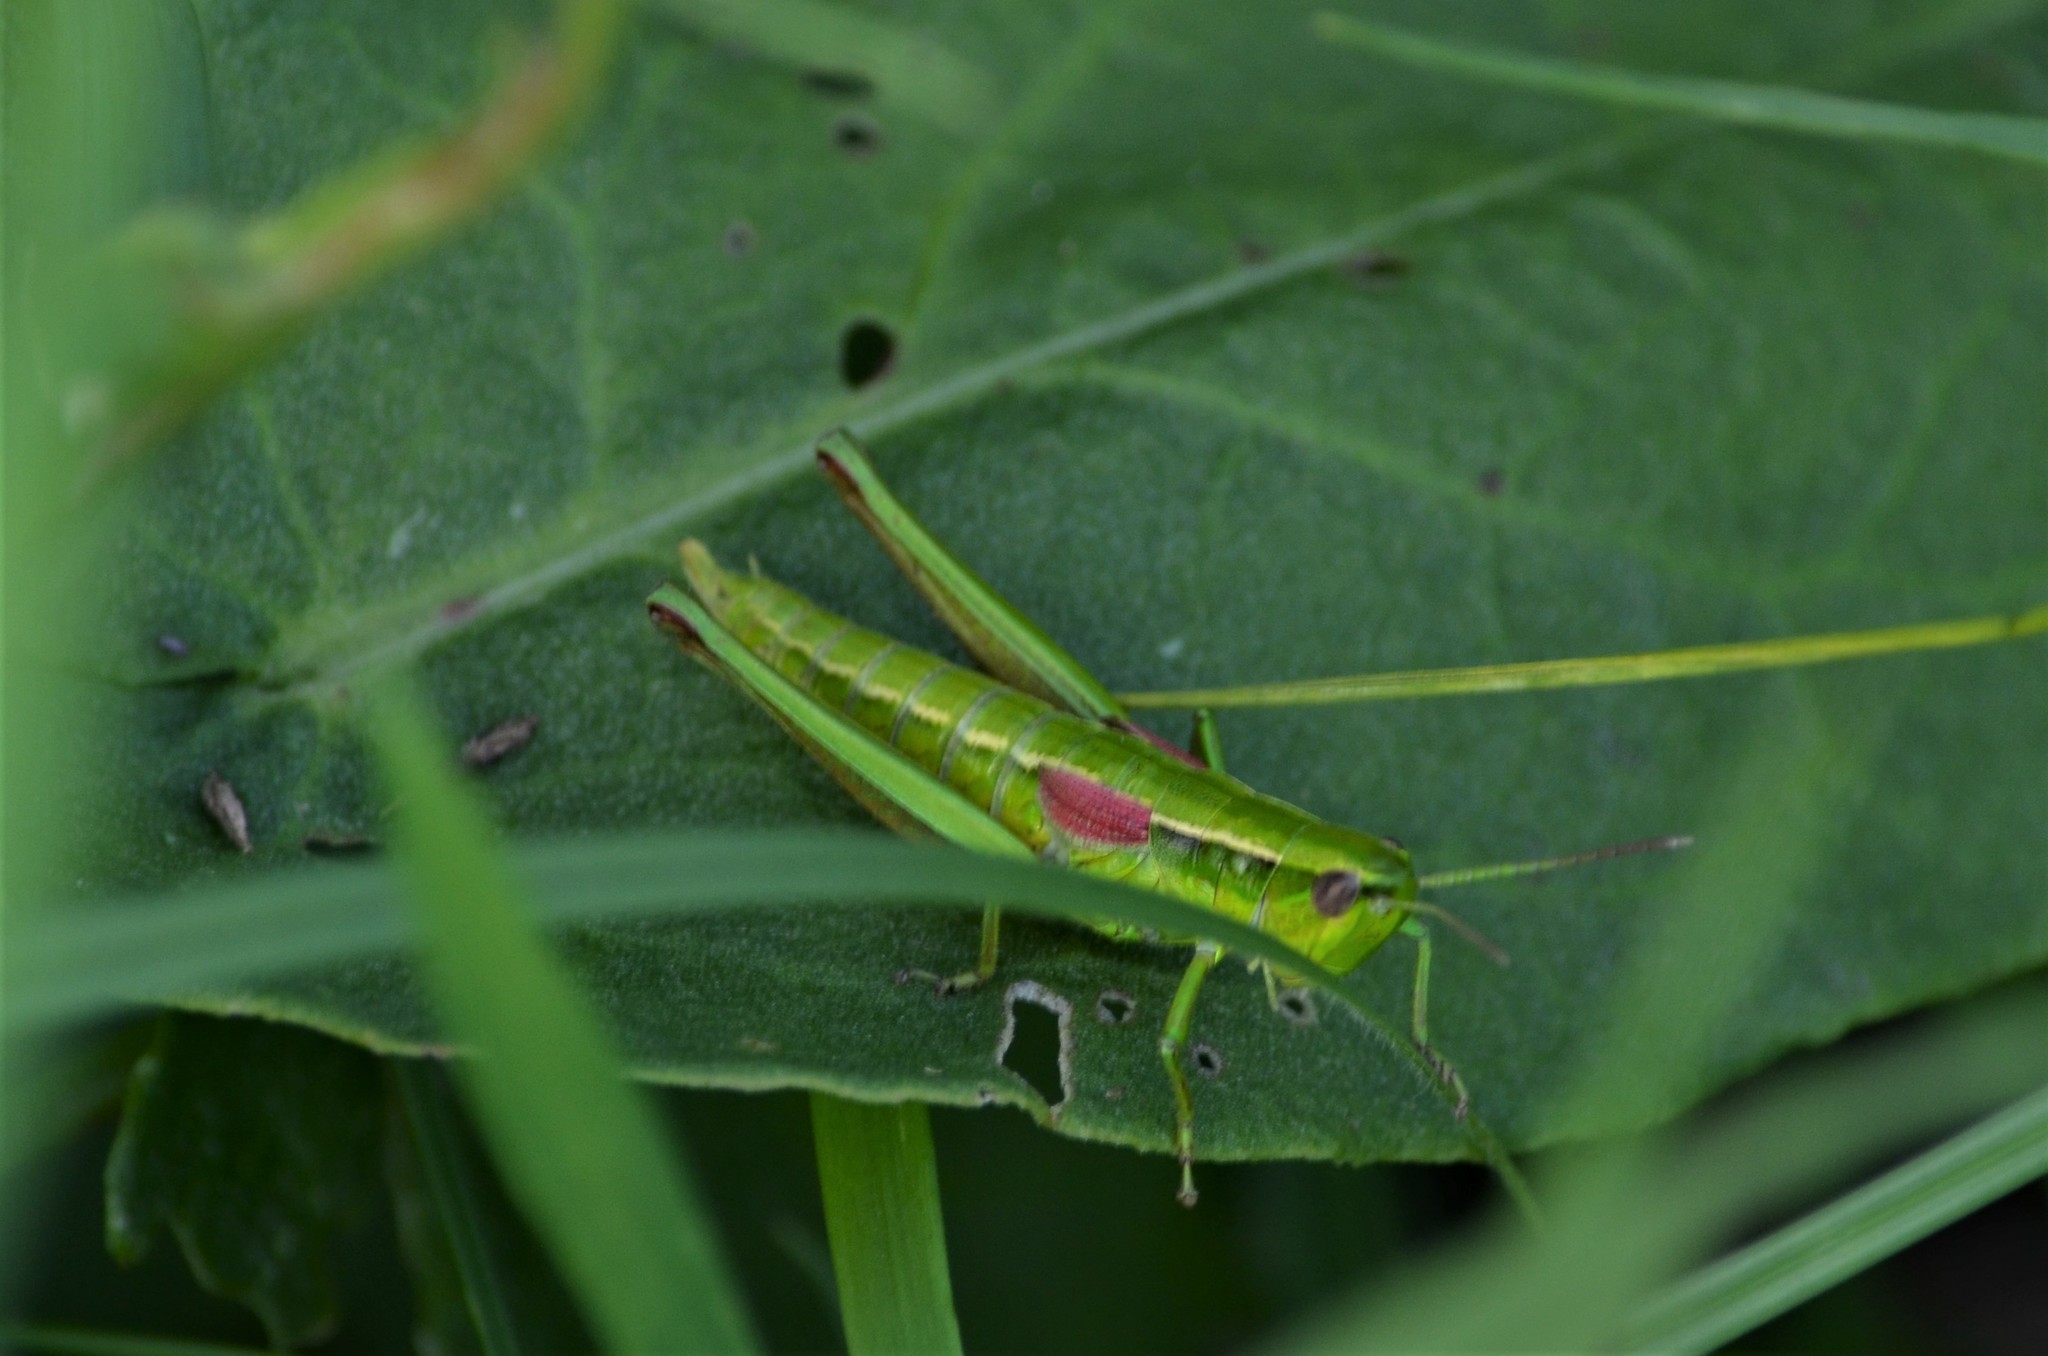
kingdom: Animalia
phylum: Arthropoda
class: Insecta
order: Orthoptera
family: Acrididae
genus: Euthystira
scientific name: Euthystira brachyptera
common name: Small gold grasshopper
